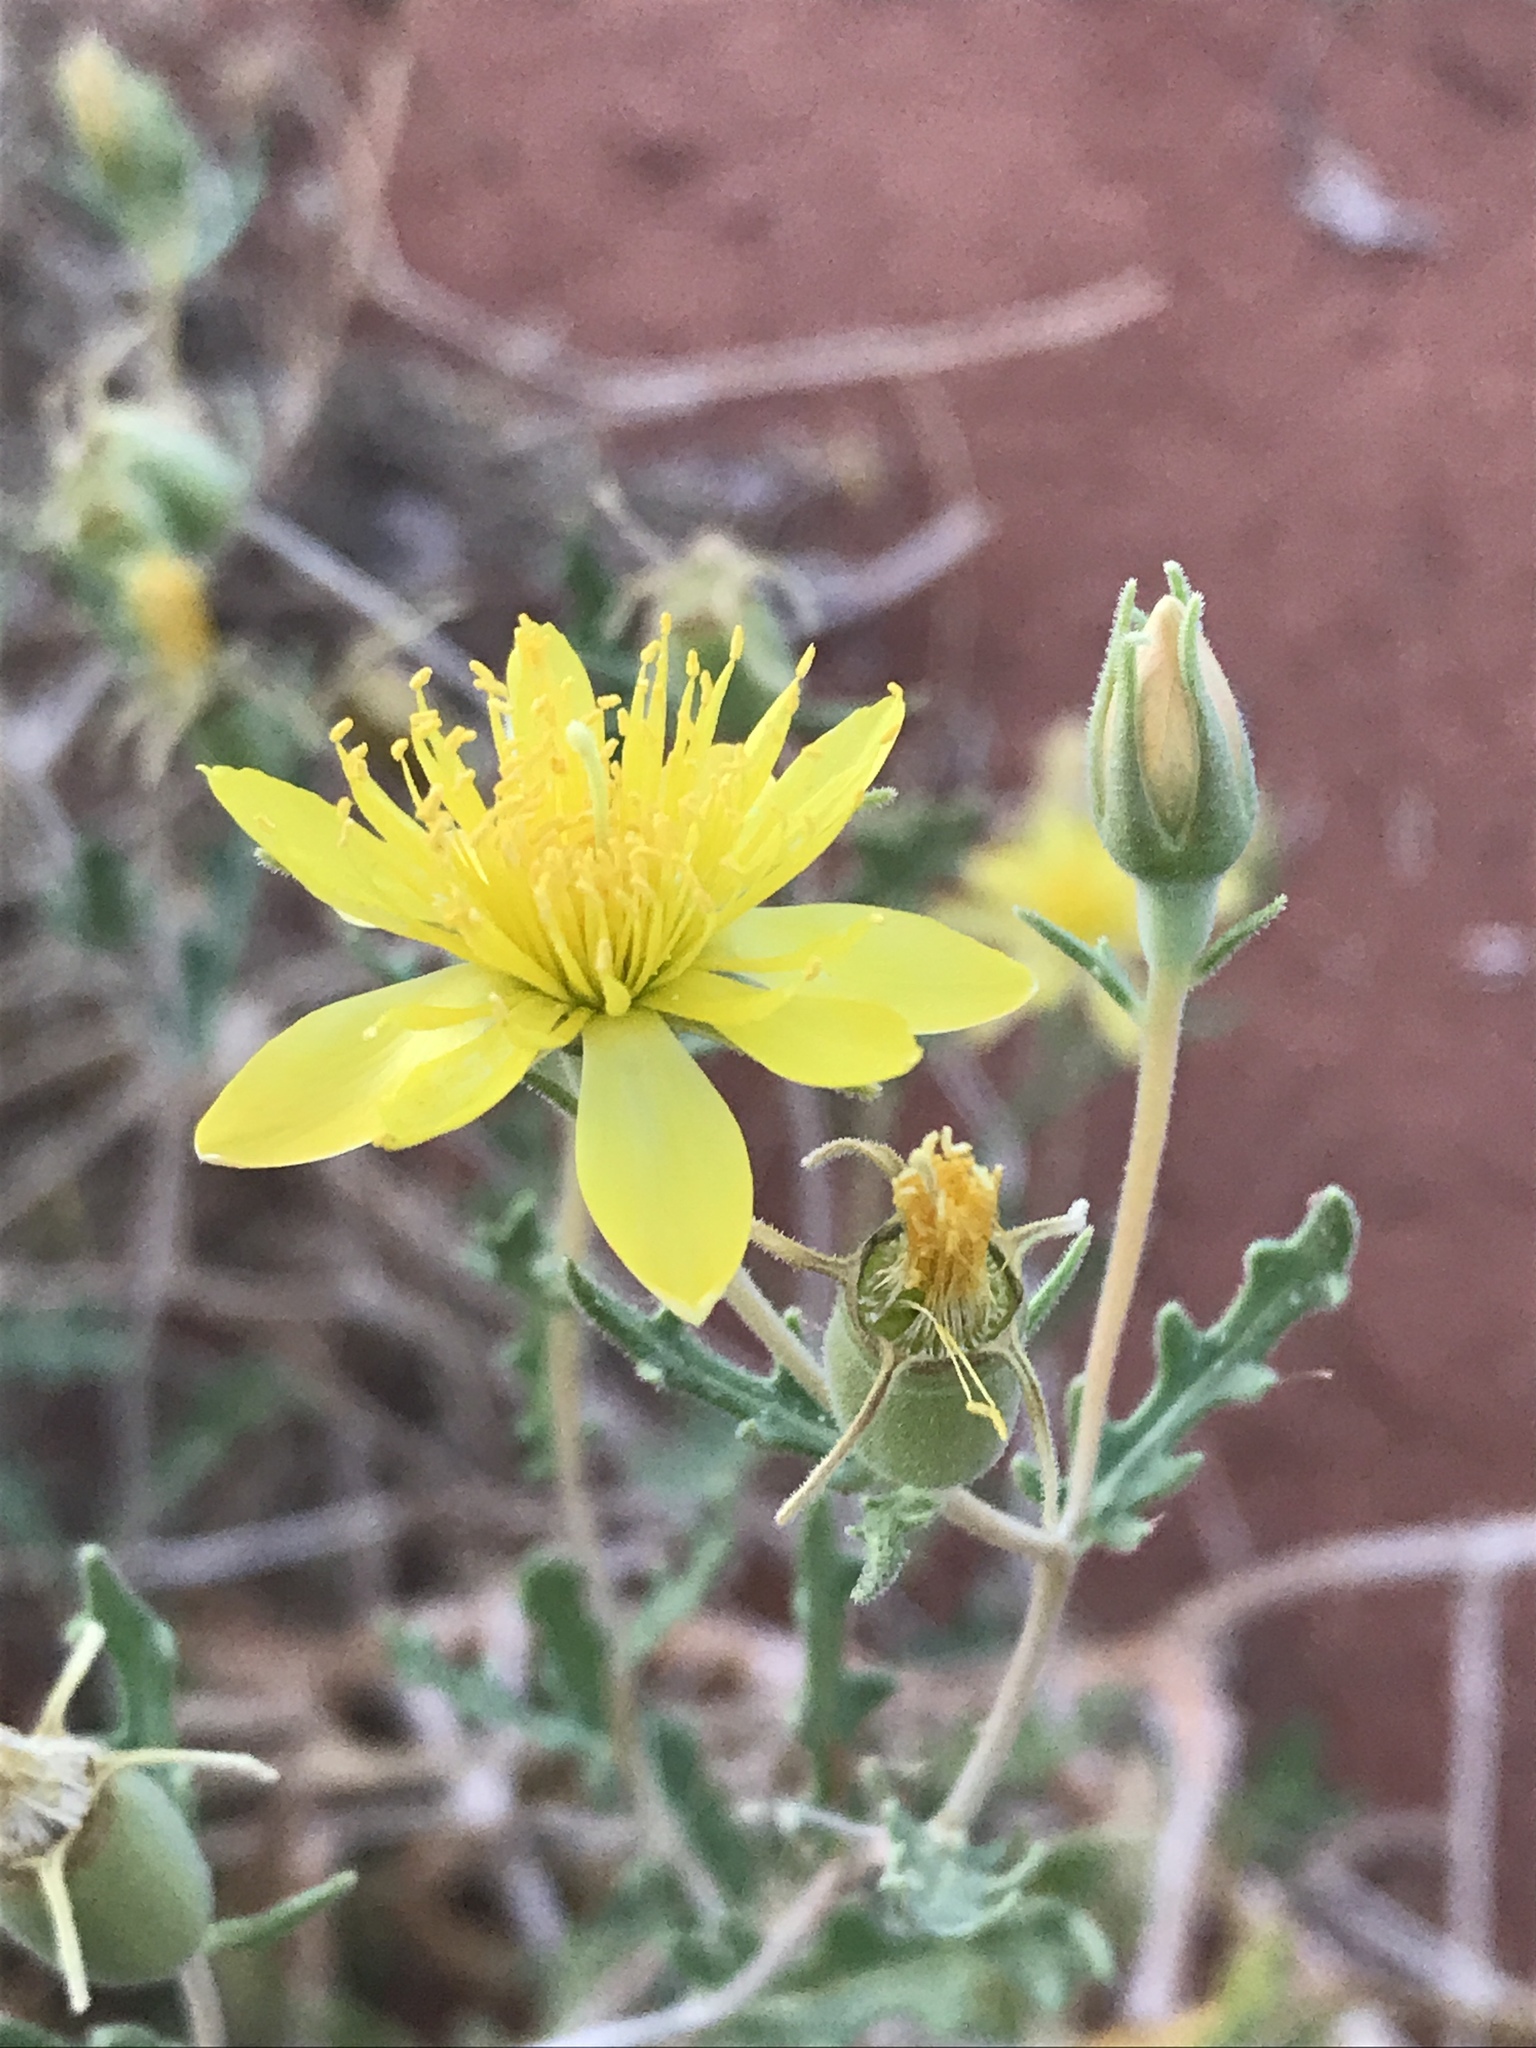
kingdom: Plantae
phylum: Tracheophyta
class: Magnoliopsida
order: Cornales
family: Loasaceae
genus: Mentzelia
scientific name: Mentzelia laevicaulis
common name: Smooth-stem blazingstar
